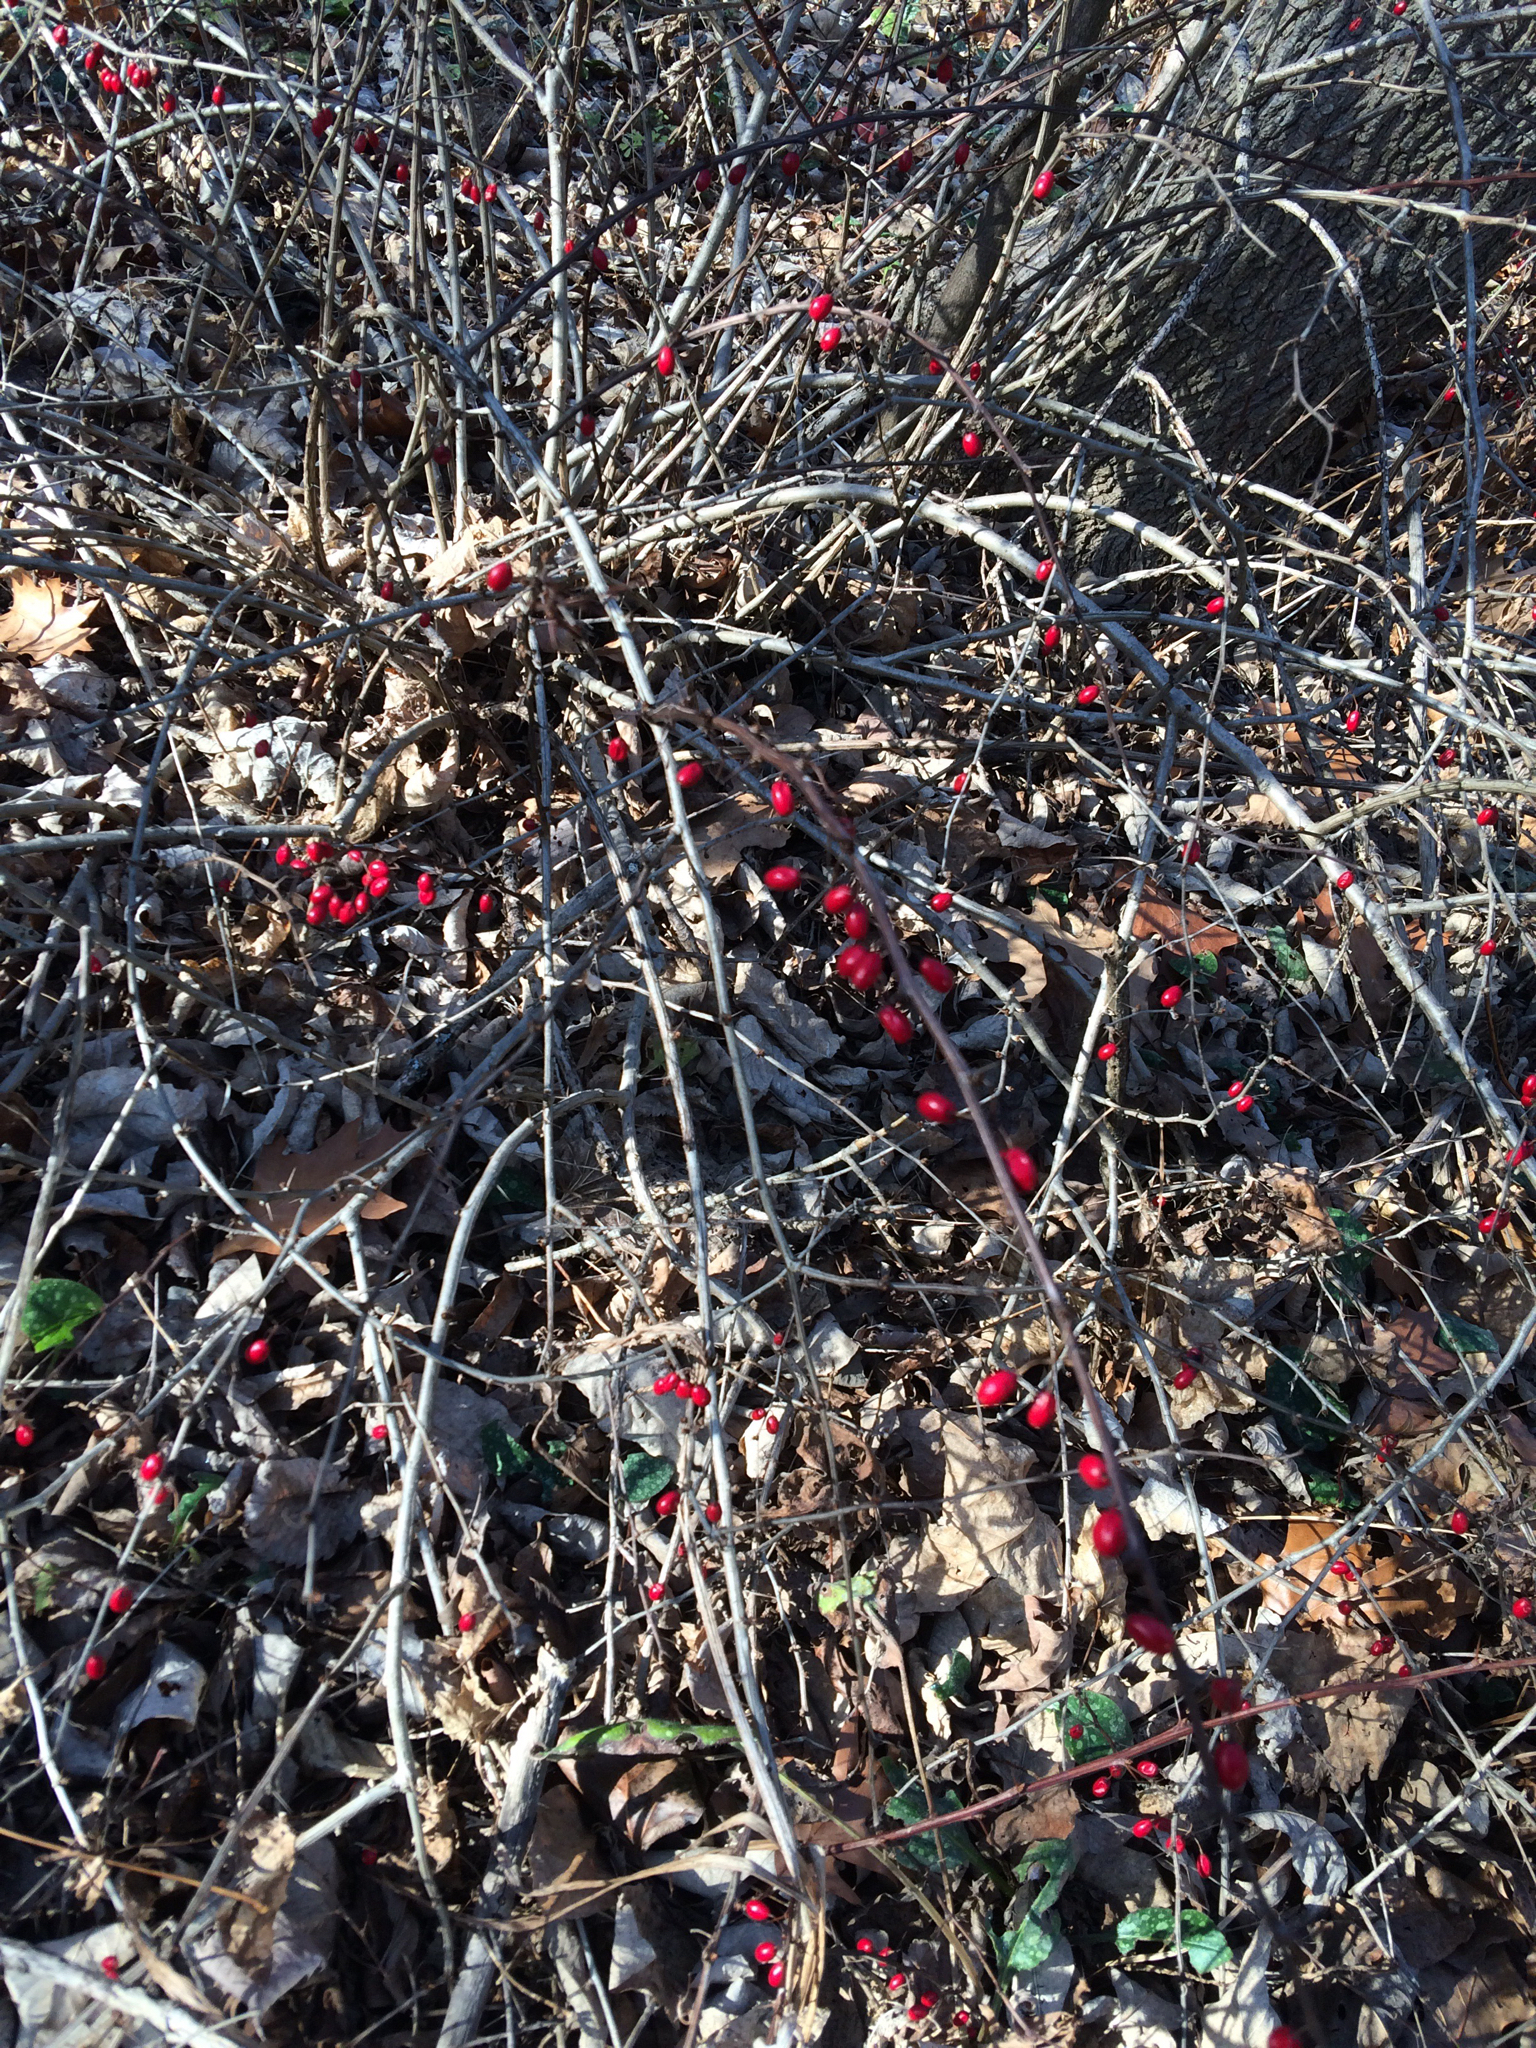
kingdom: Plantae
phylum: Tracheophyta
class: Magnoliopsida
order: Ranunculales
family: Berberidaceae
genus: Berberis
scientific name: Berberis thunbergii
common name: Japanese barberry
